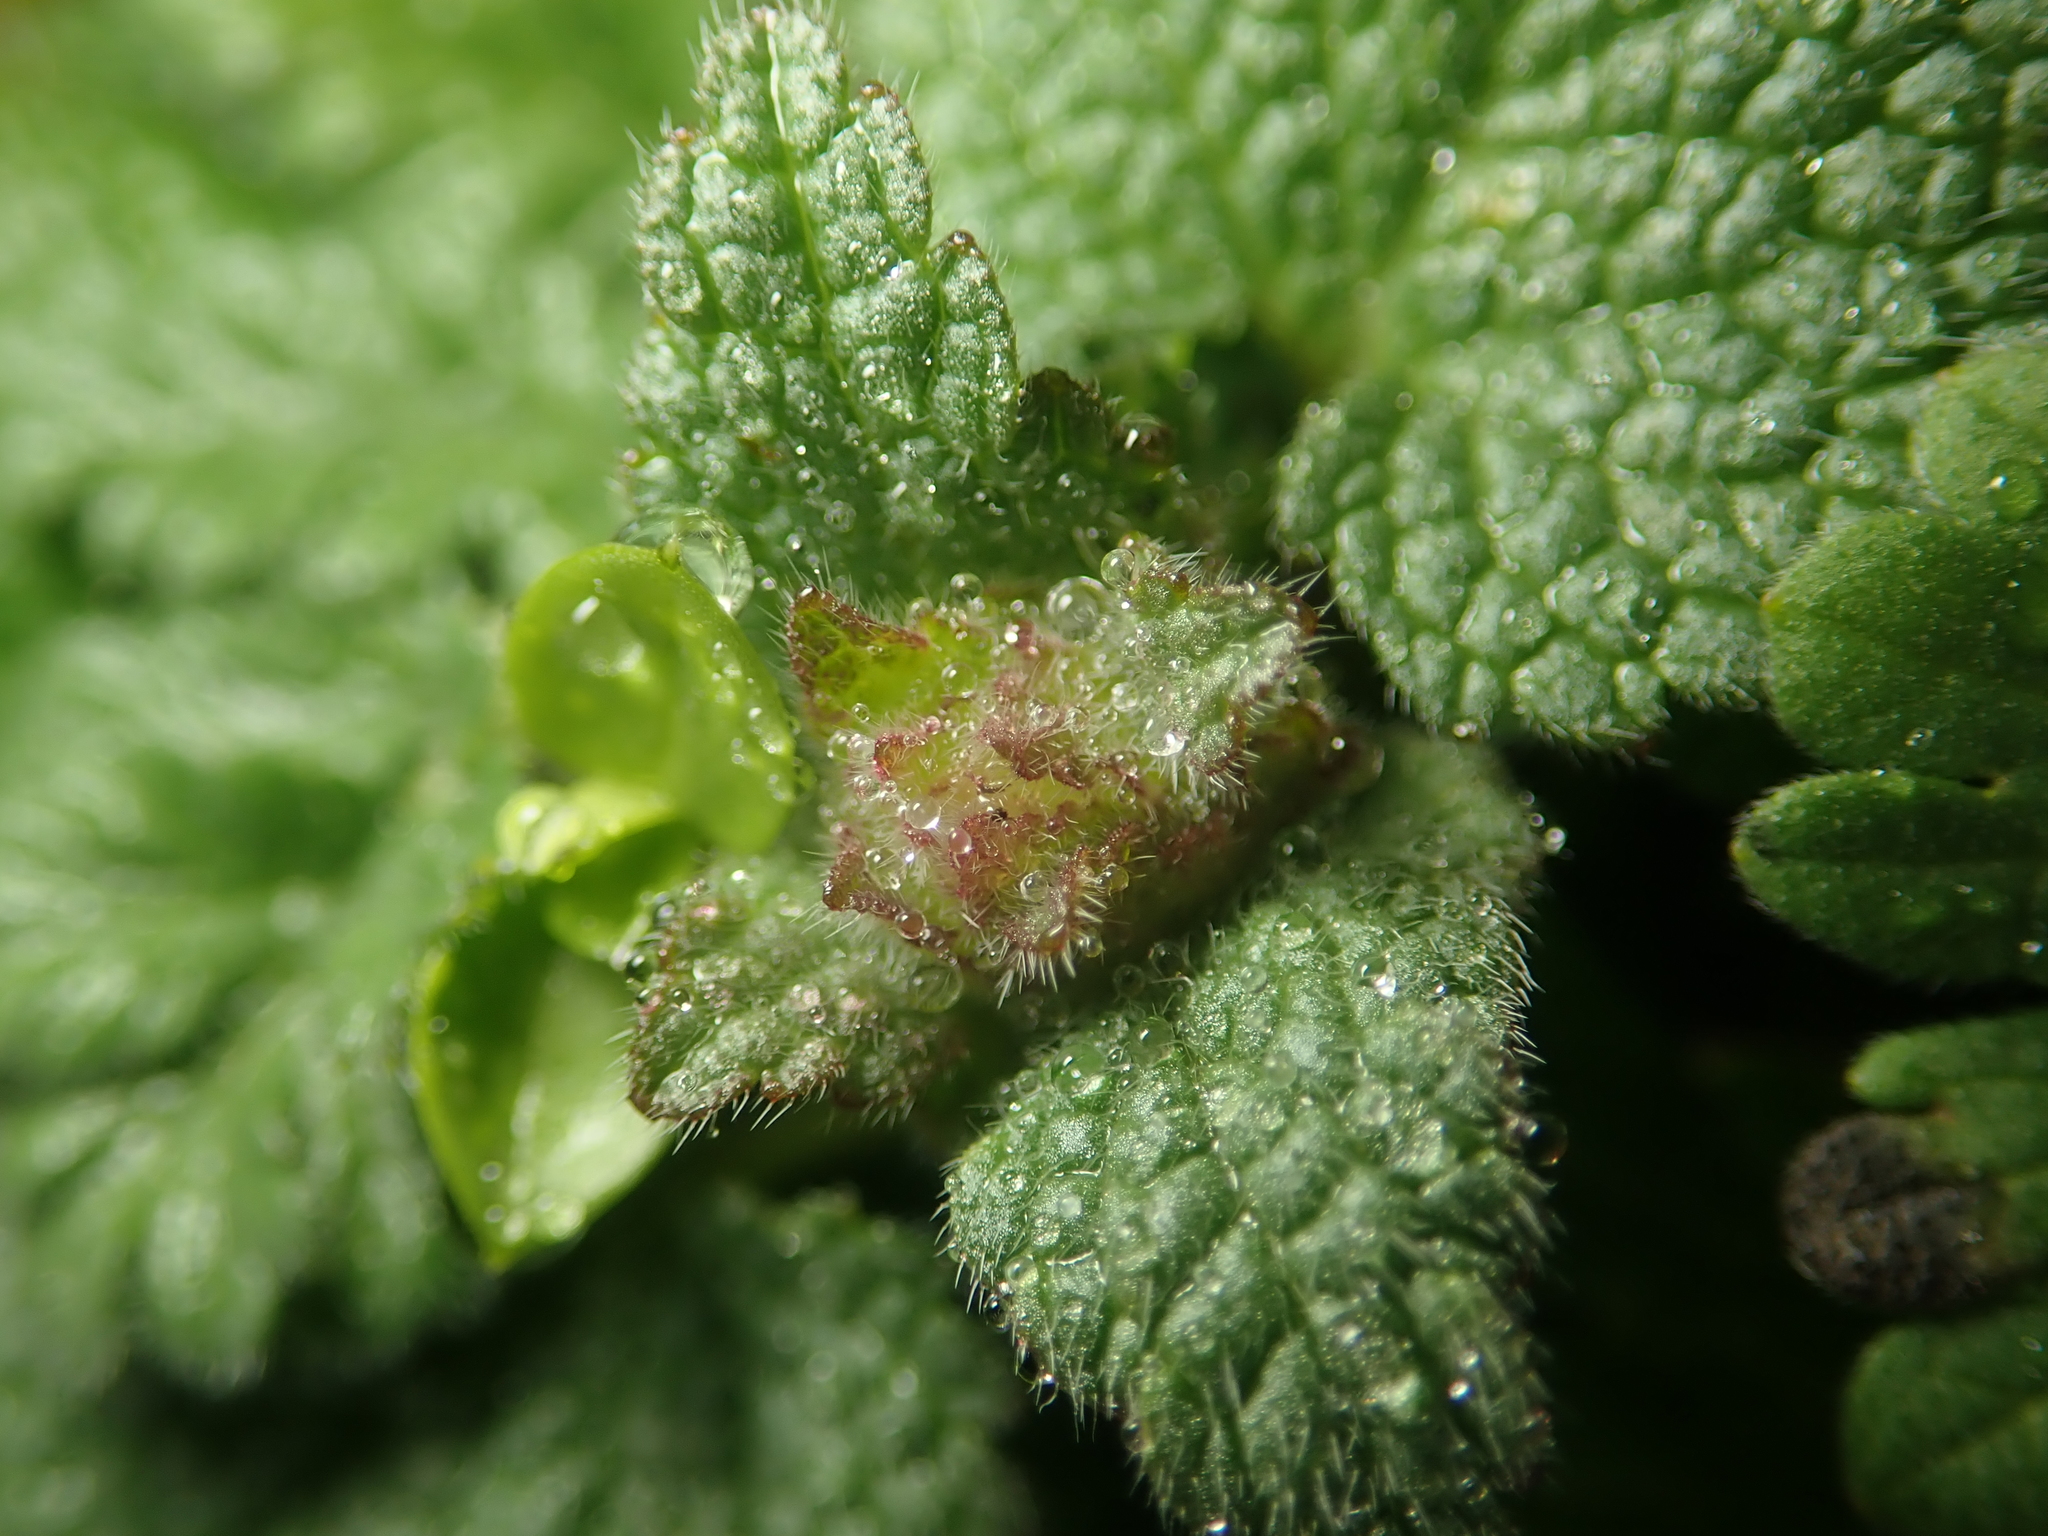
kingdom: Plantae
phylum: Tracheophyta
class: Magnoliopsida
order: Lamiales
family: Lamiaceae
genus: Lamium
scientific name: Lamium purpureum
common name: Red dead-nettle
